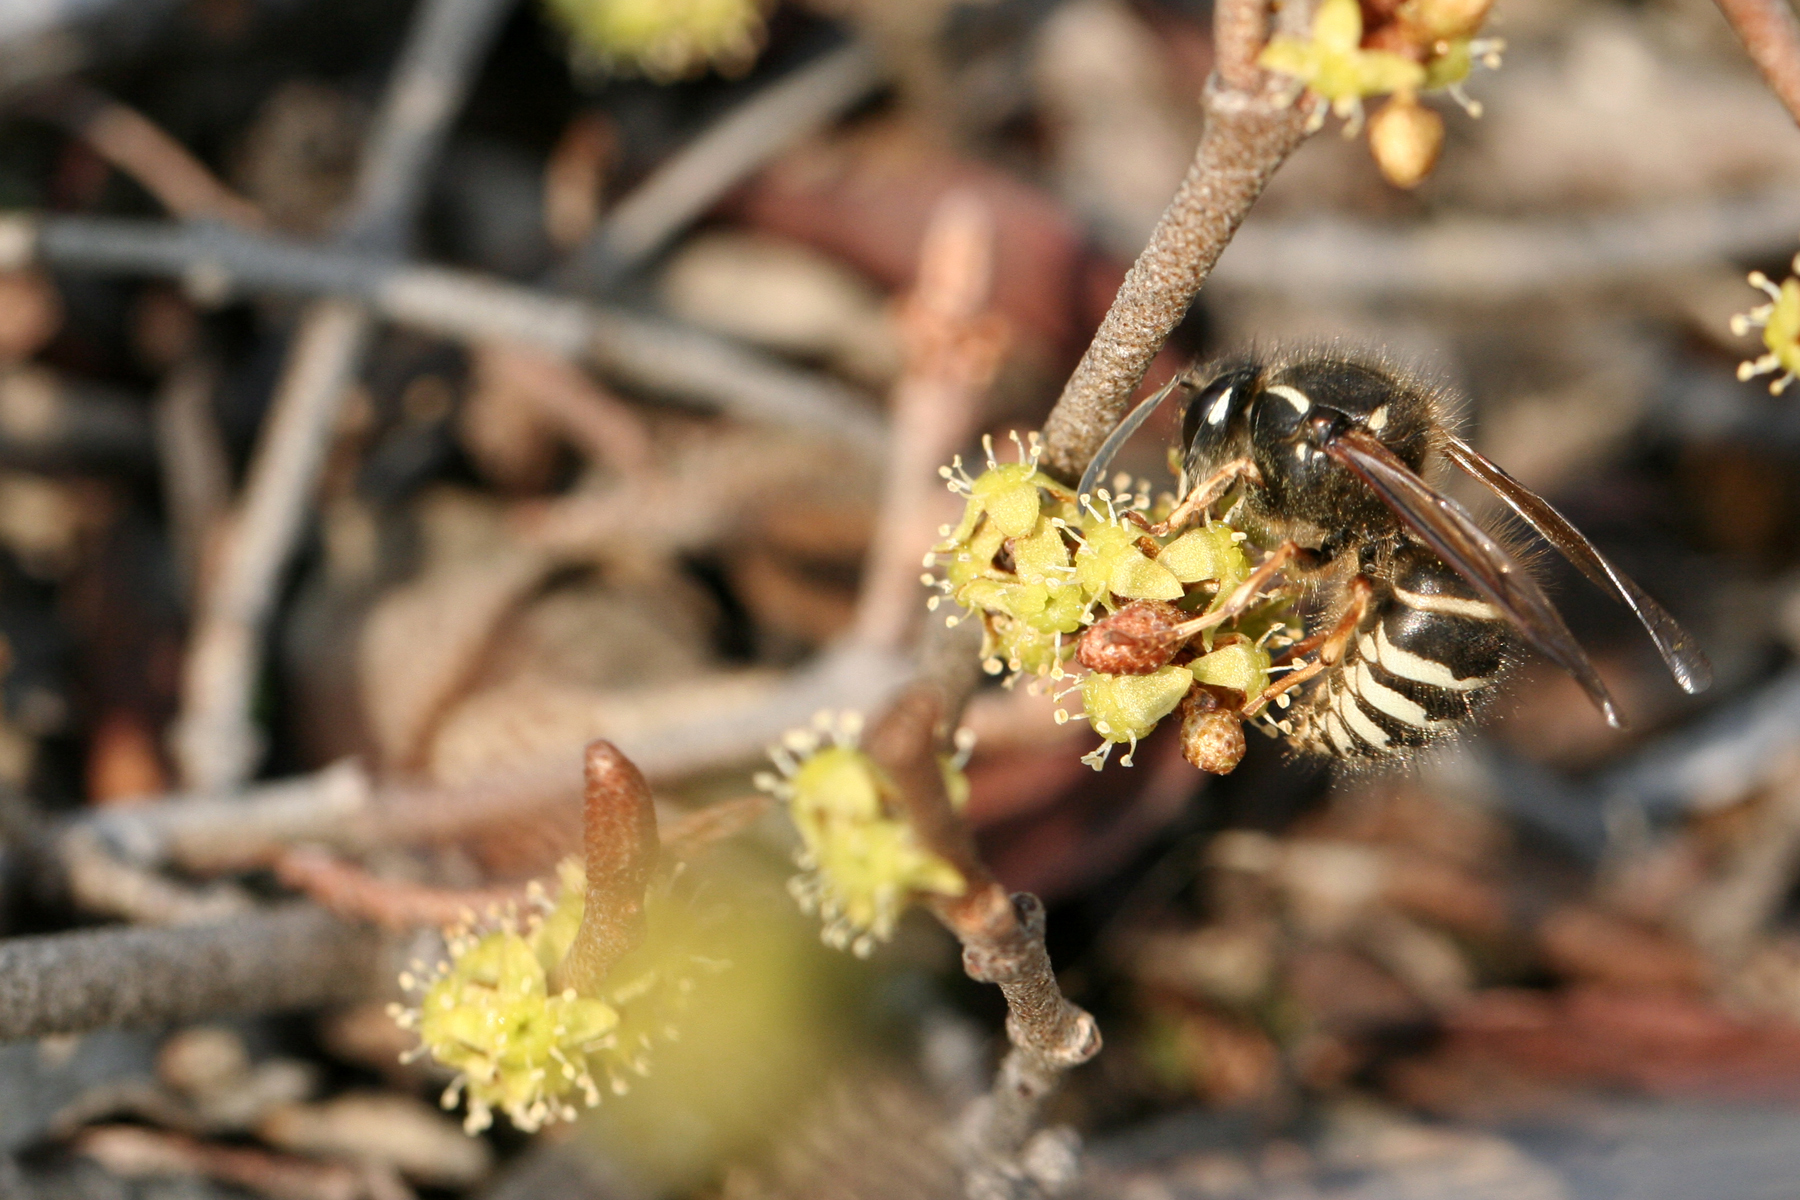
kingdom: Animalia
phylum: Arthropoda
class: Insecta
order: Hymenoptera
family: Vespidae
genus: Dolichovespula
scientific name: Dolichovespula norwegica
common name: Norwegian wasp
